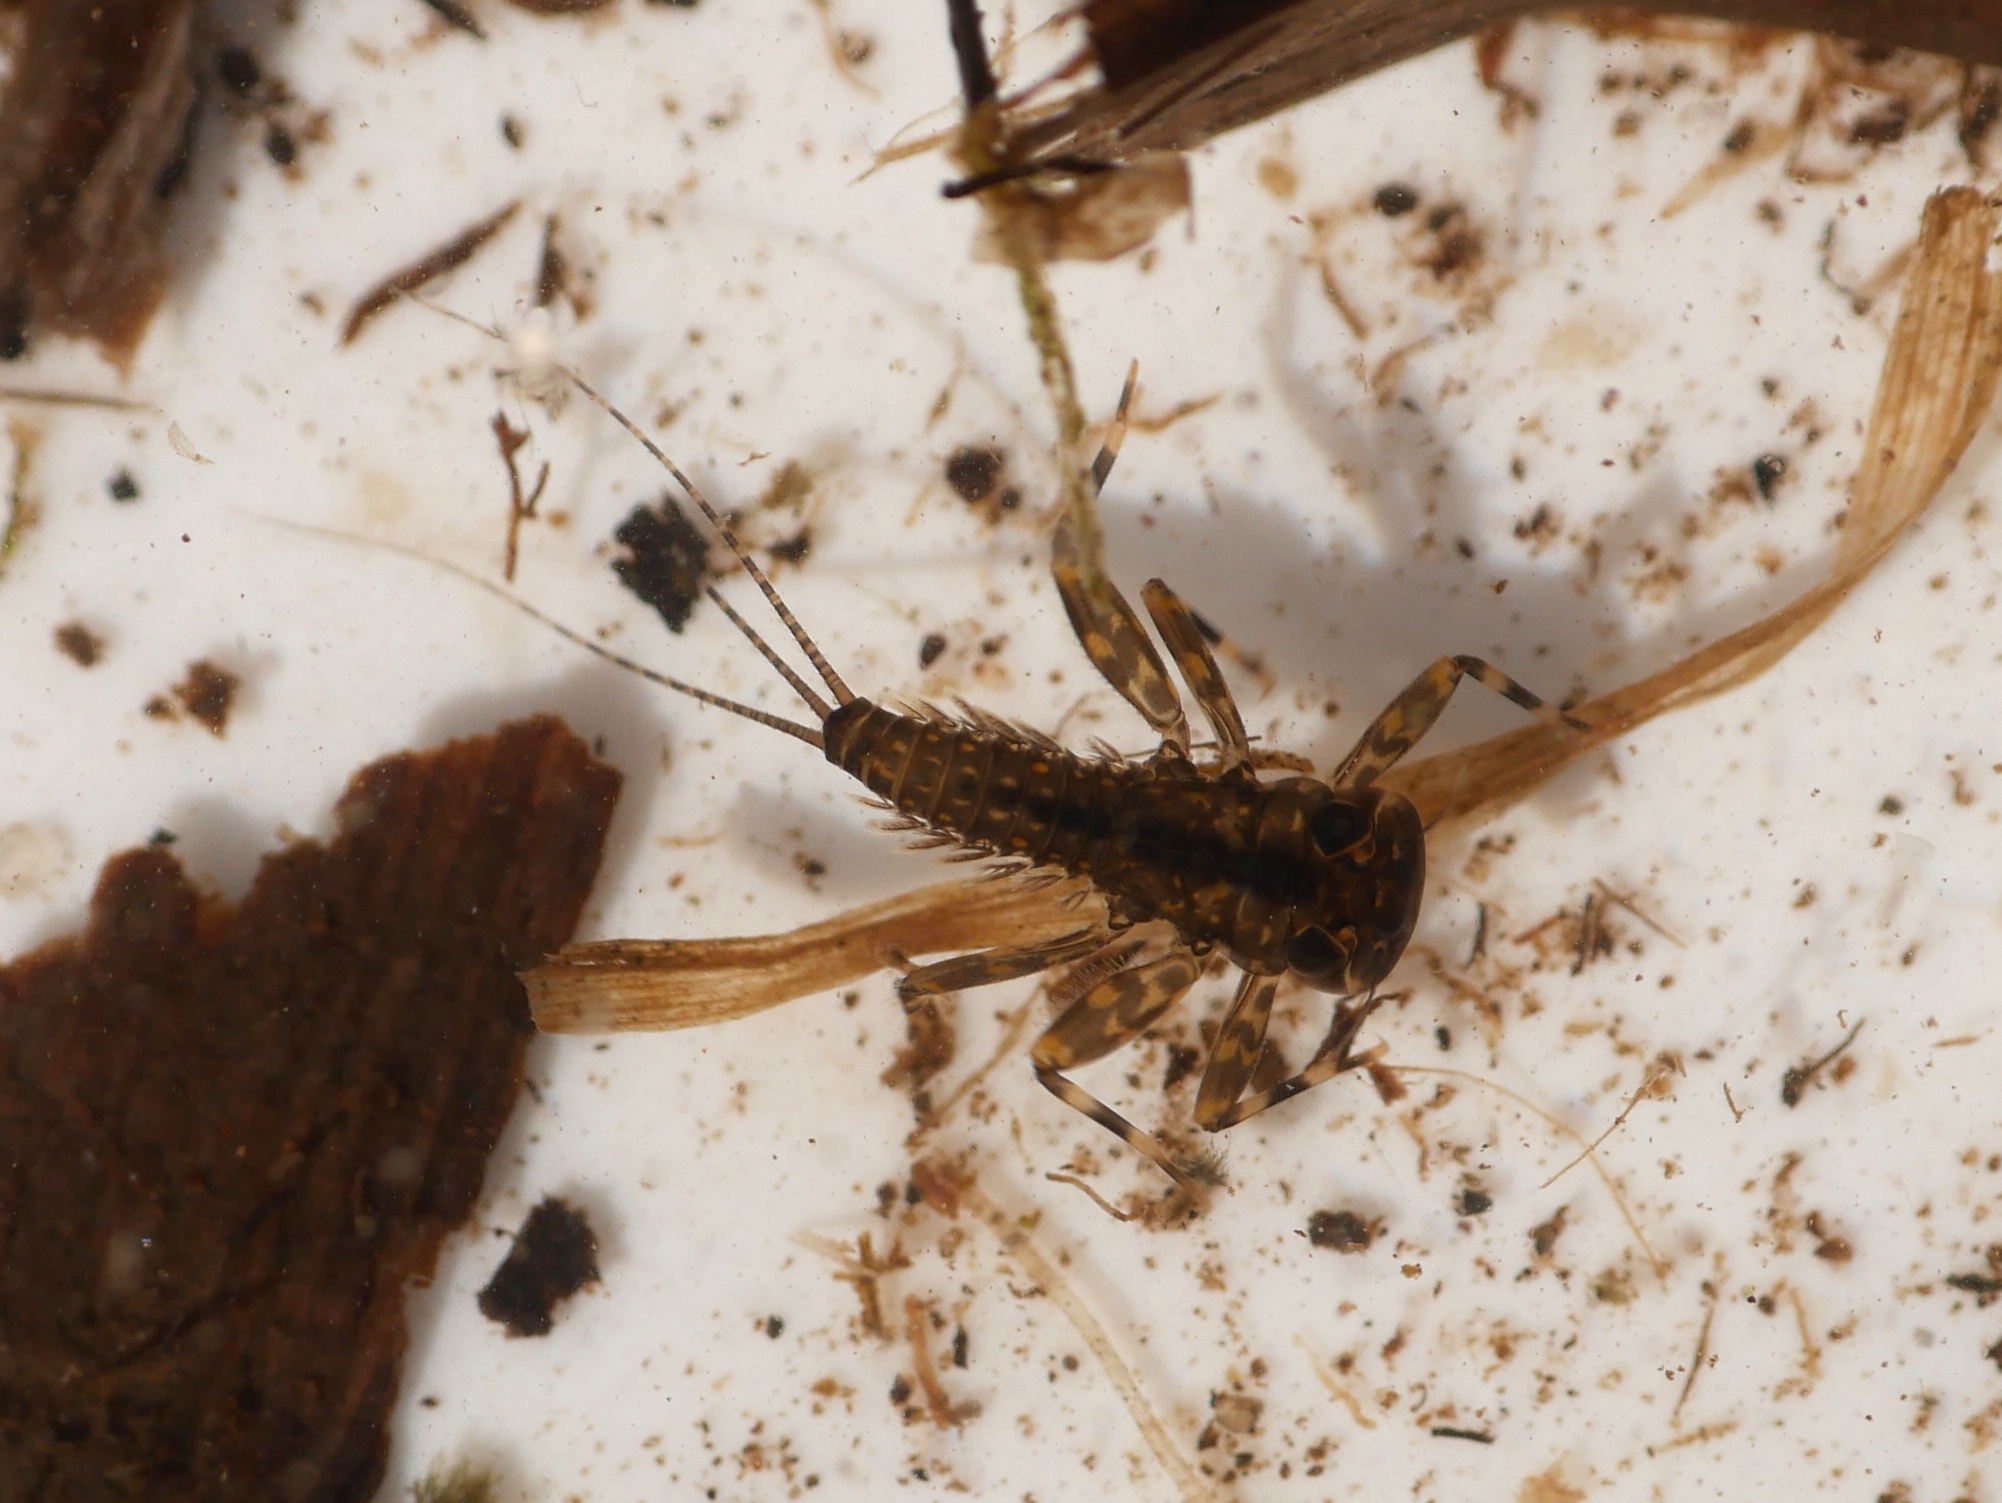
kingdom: Animalia
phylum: Arthropoda
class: Insecta
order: Ephemeroptera
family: Heptageniidae
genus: Heptagenia
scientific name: Heptagenia sulphurea
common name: Yellow may dun
